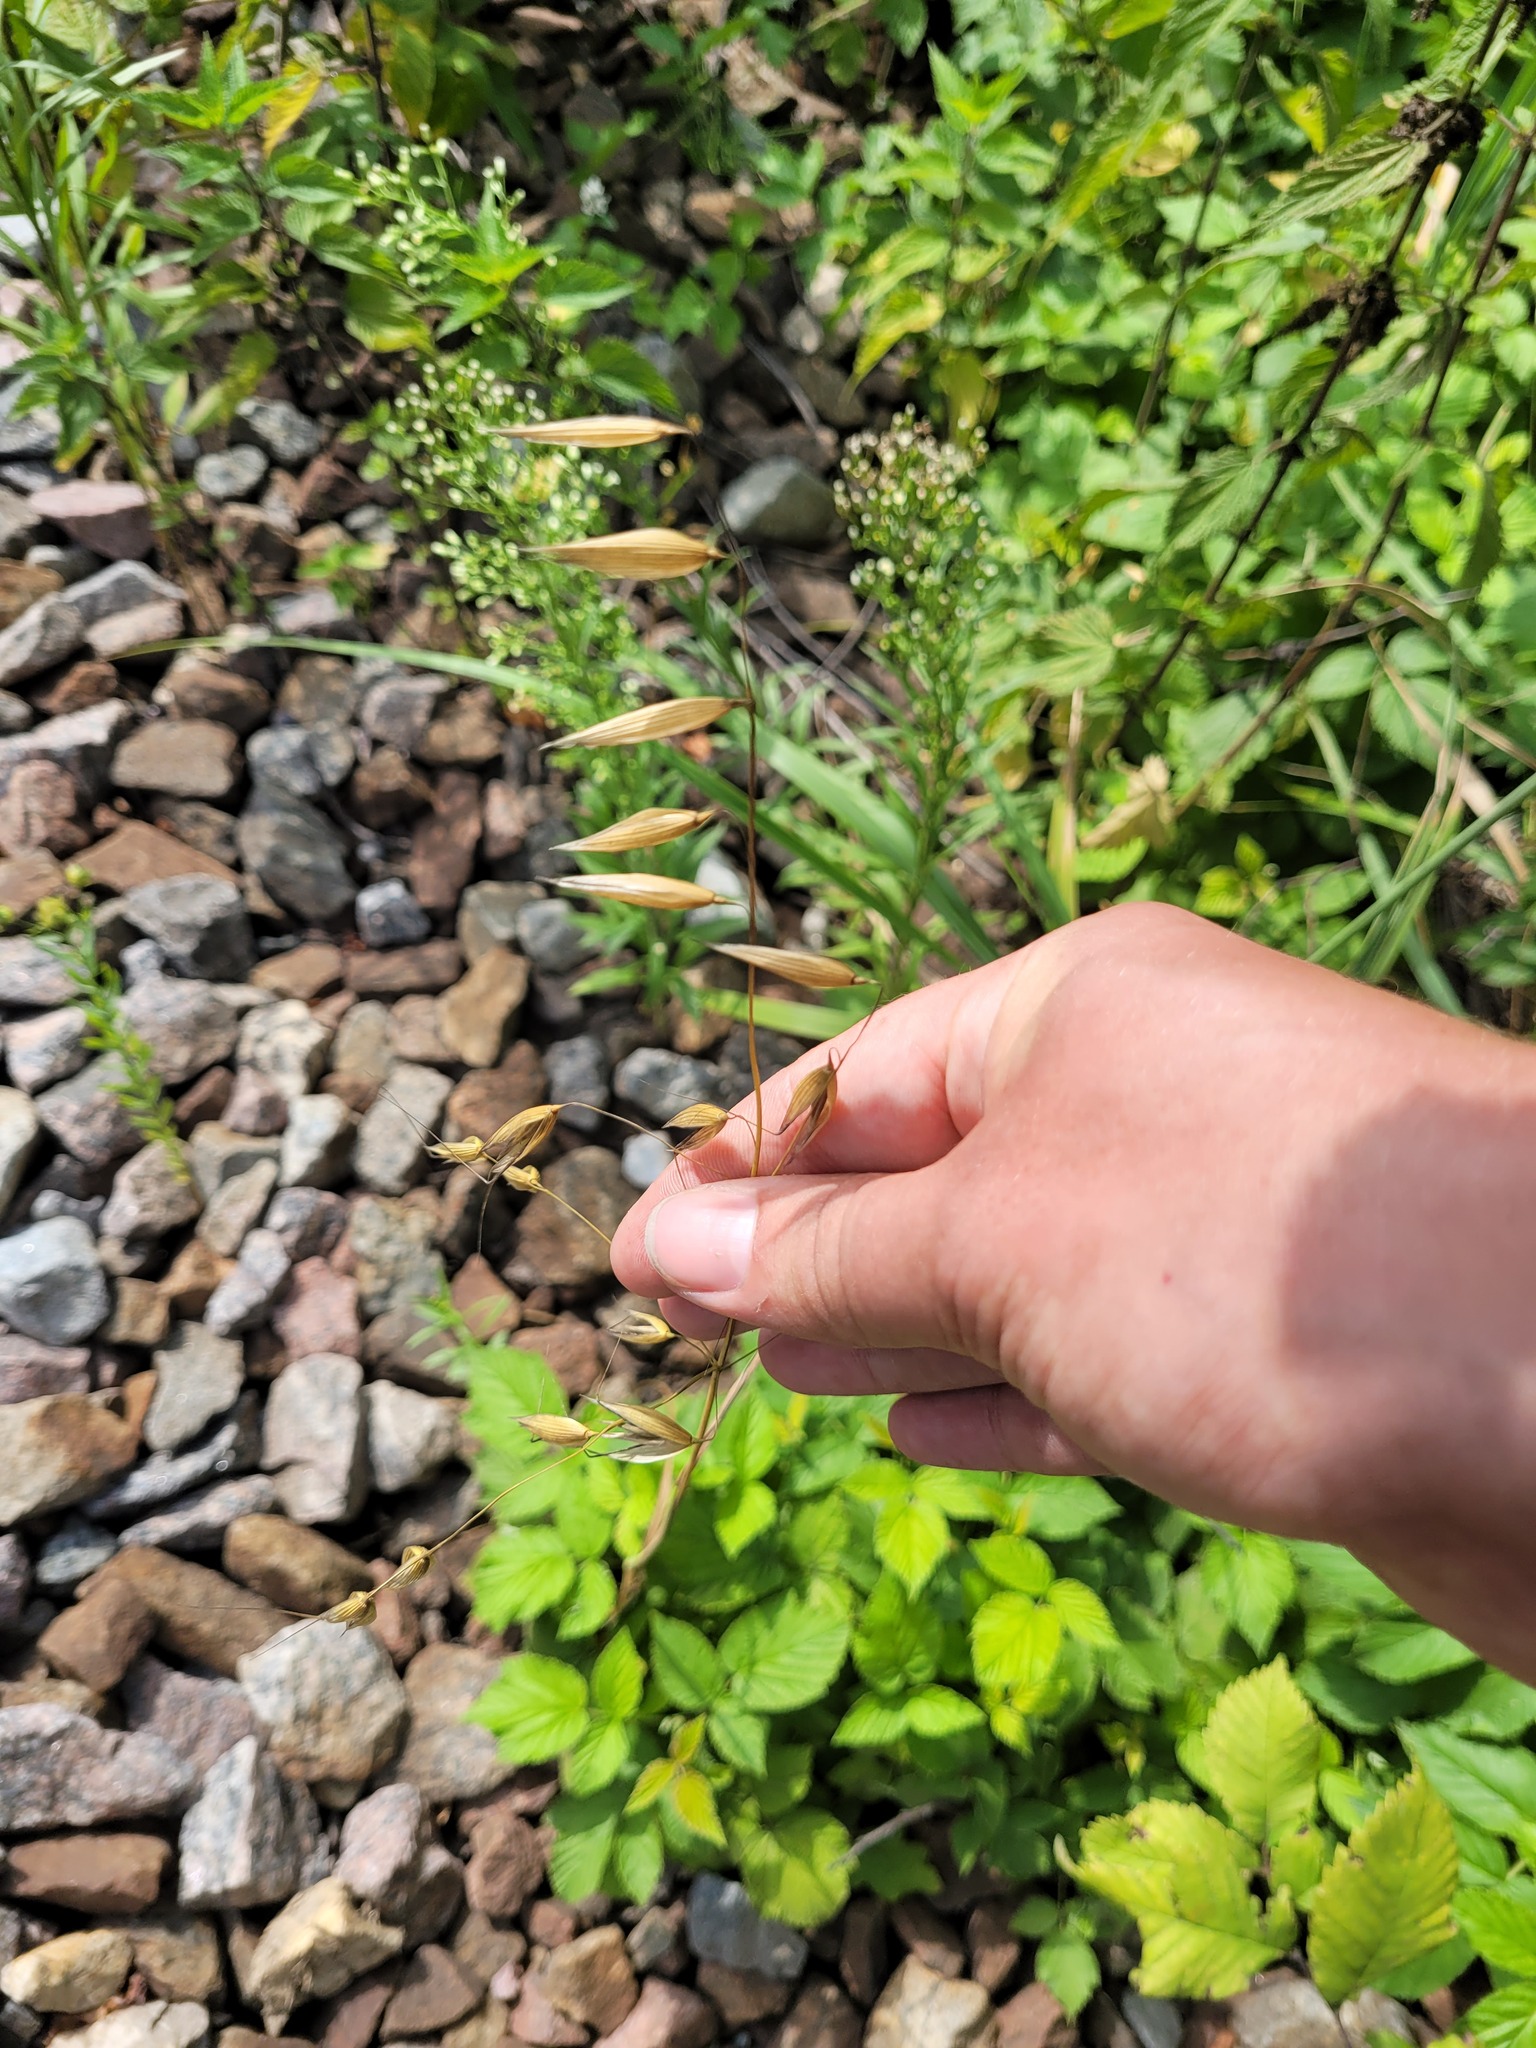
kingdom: Plantae
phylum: Tracheophyta
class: Liliopsida
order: Poales
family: Poaceae
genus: Avena
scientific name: Avena fatua
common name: Wild oat
